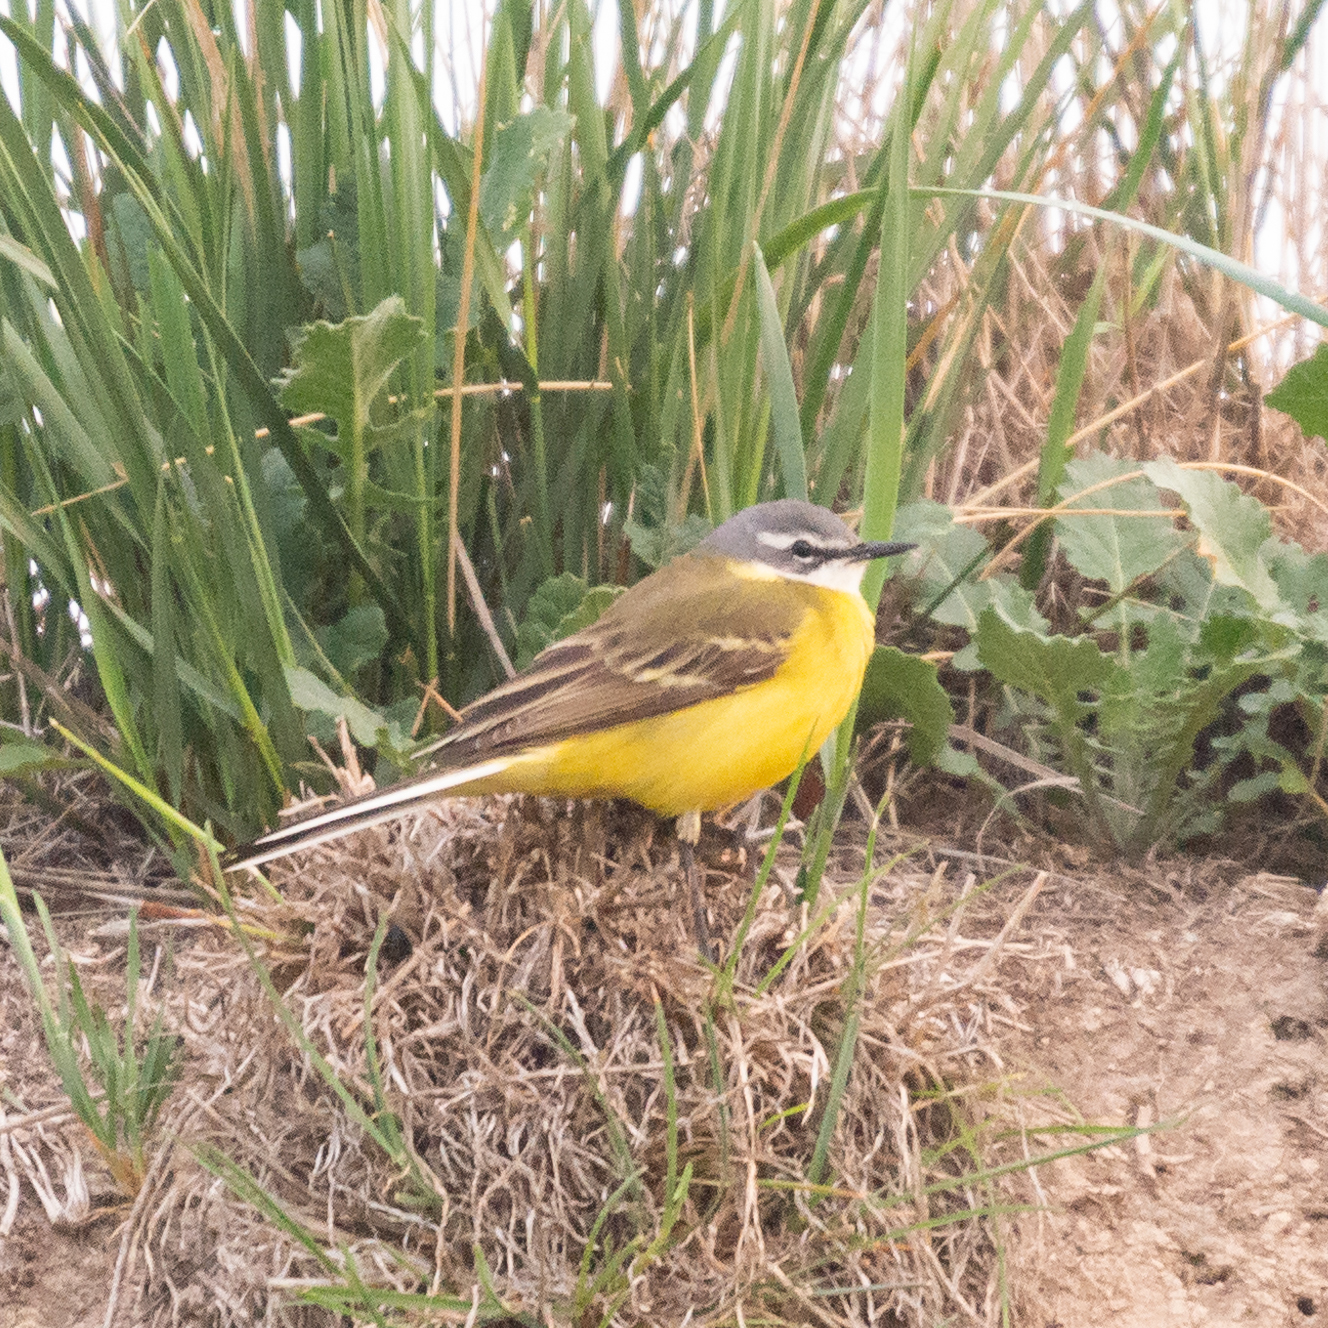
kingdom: Animalia
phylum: Chordata
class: Aves
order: Passeriformes
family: Motacillidae
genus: Motacilla
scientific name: Motacilla flava
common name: Western yellow wagtail
